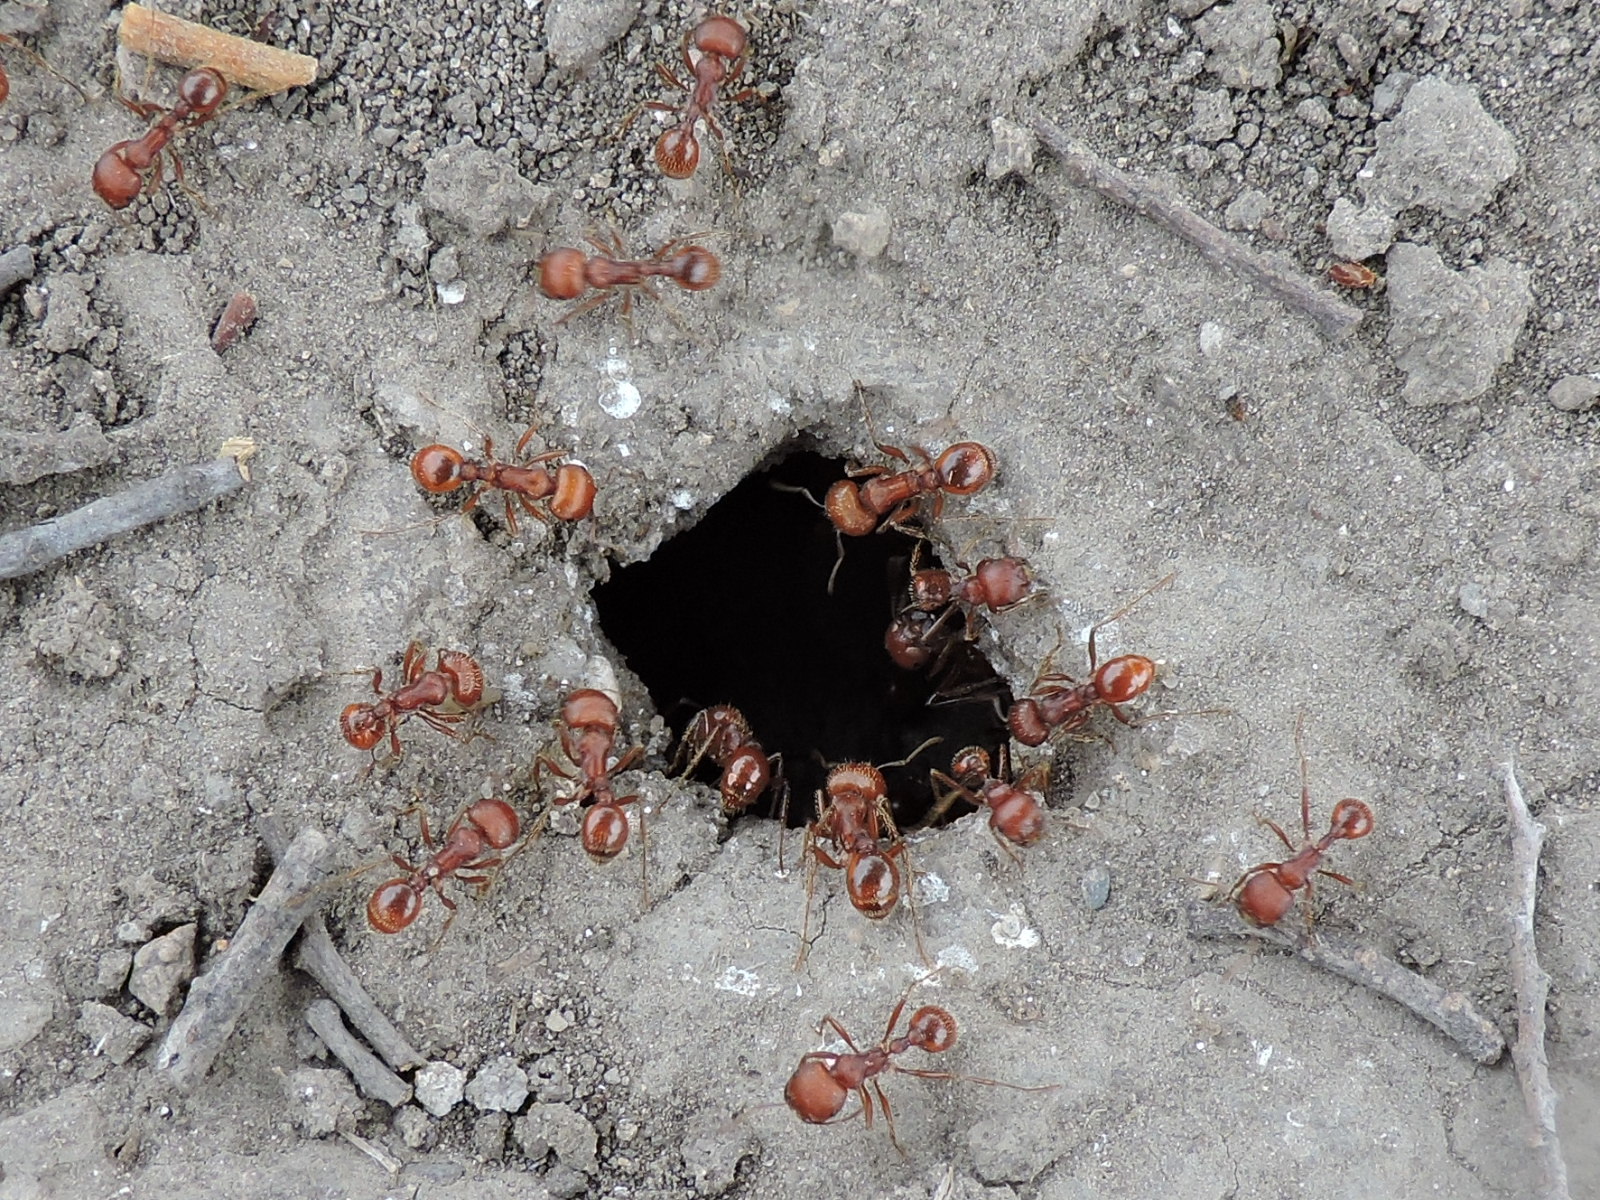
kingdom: Animalia
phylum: Arthropoda
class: Insecta
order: Hymenoptera
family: Formicidae
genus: Pogonomyrmex
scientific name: Pogonomyrmex barbatus
